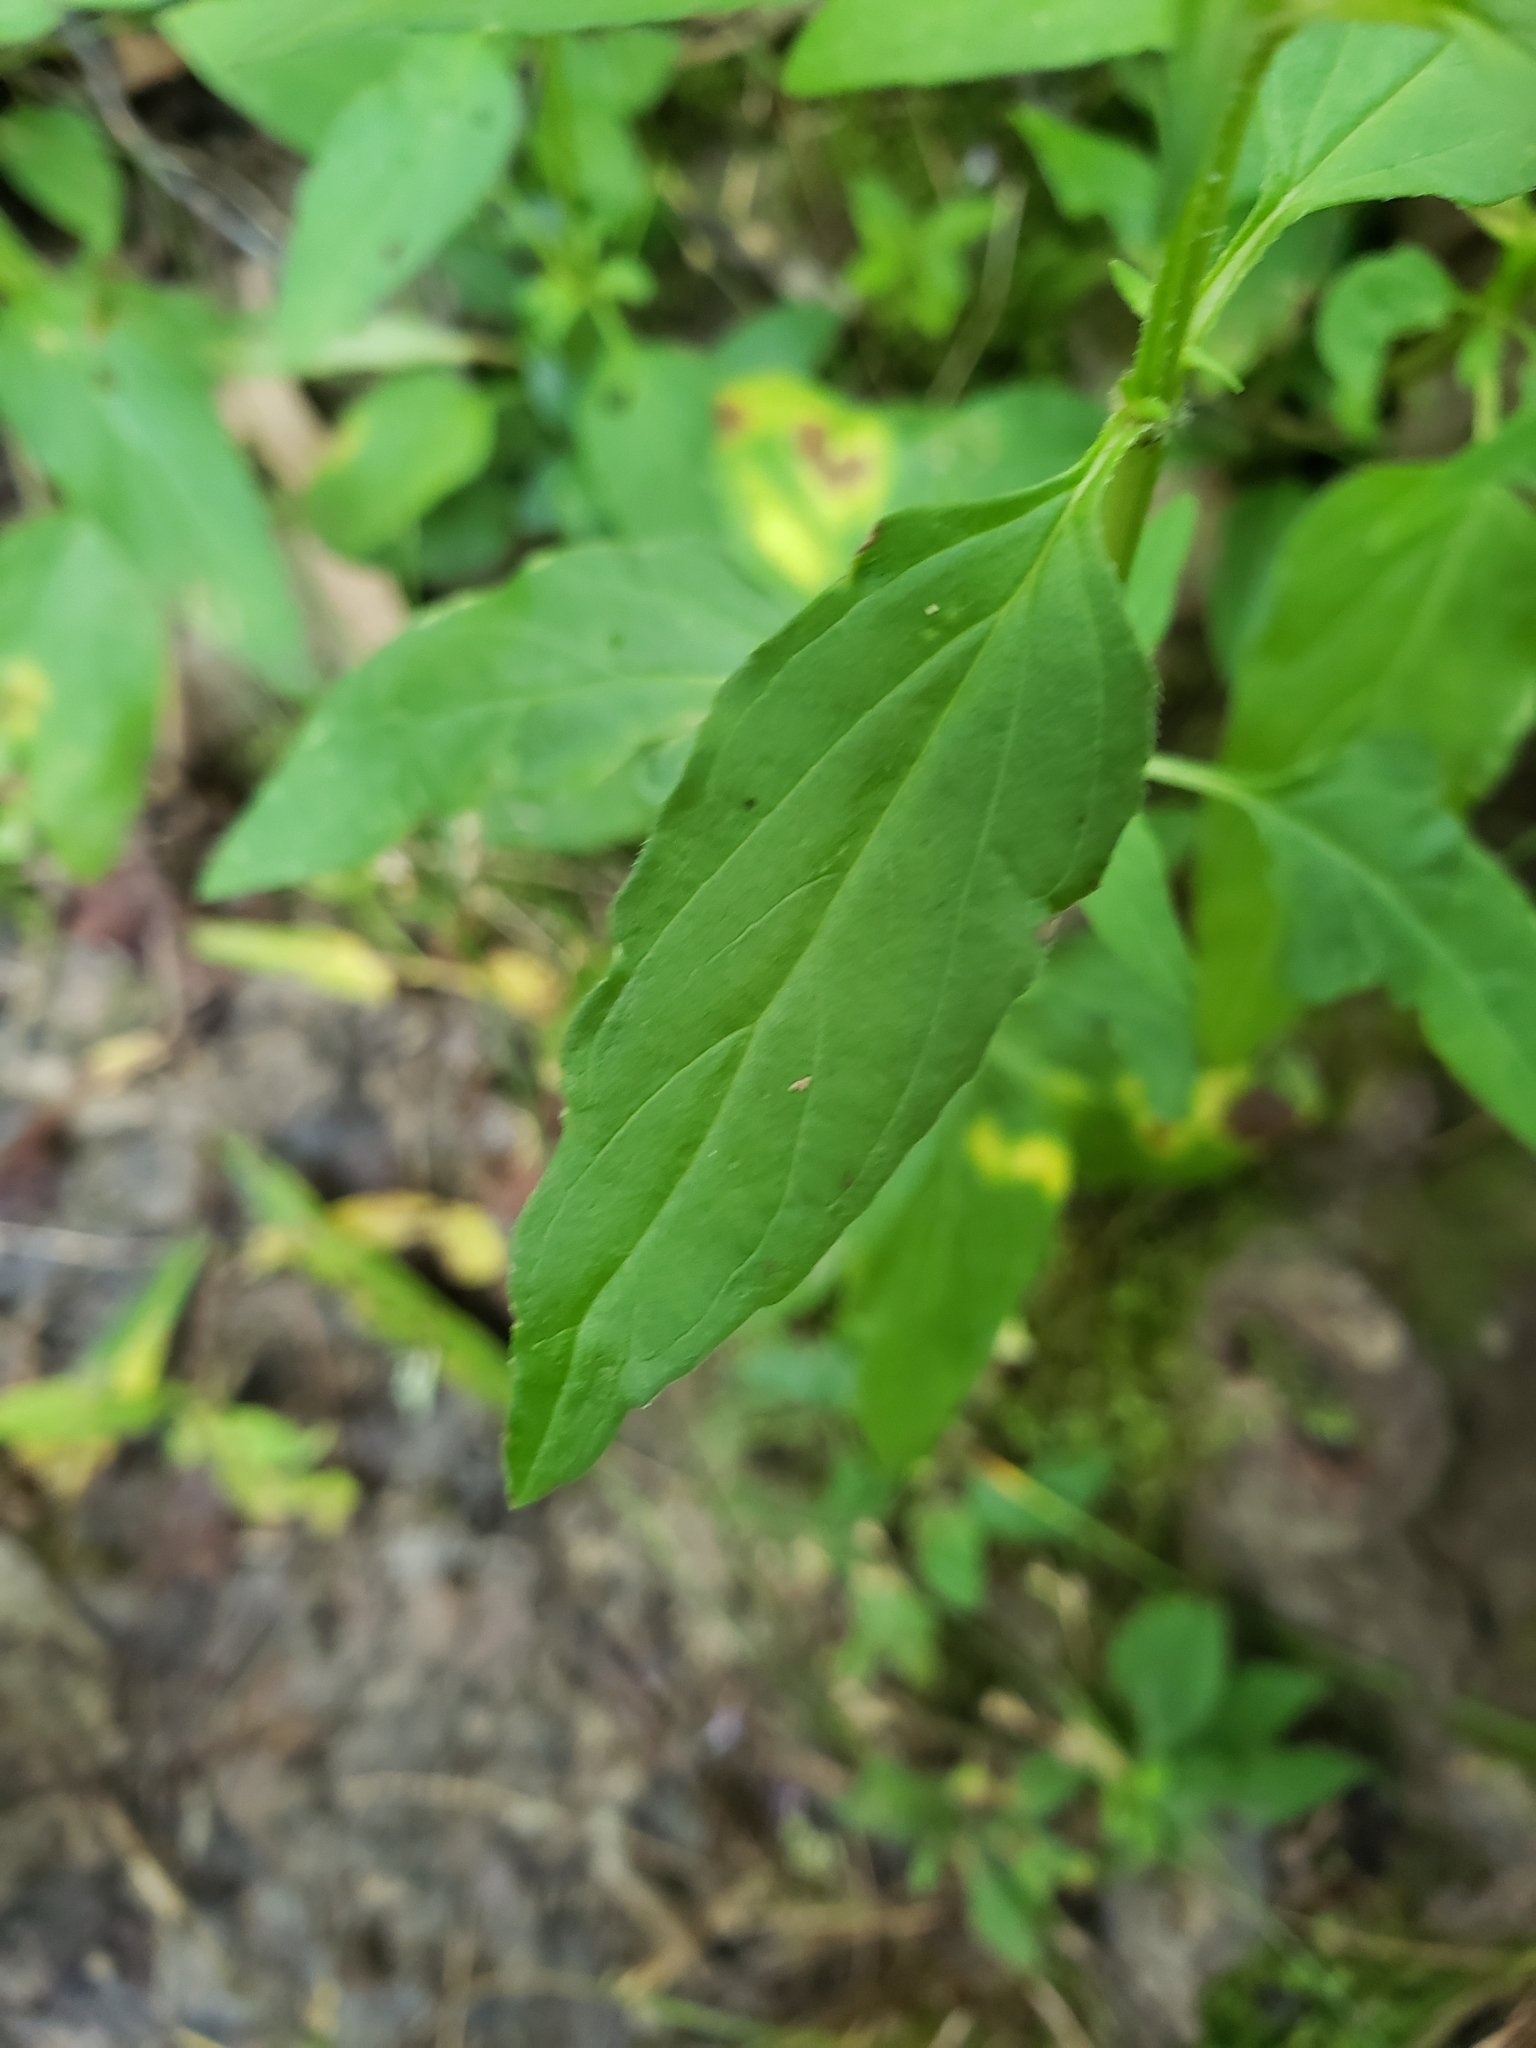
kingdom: Plantae
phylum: Tracheophyta
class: Magnoliopsida
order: Lamiales
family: Lamiaceae
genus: Prunella
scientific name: Prunella vulgaris
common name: Heal-all
